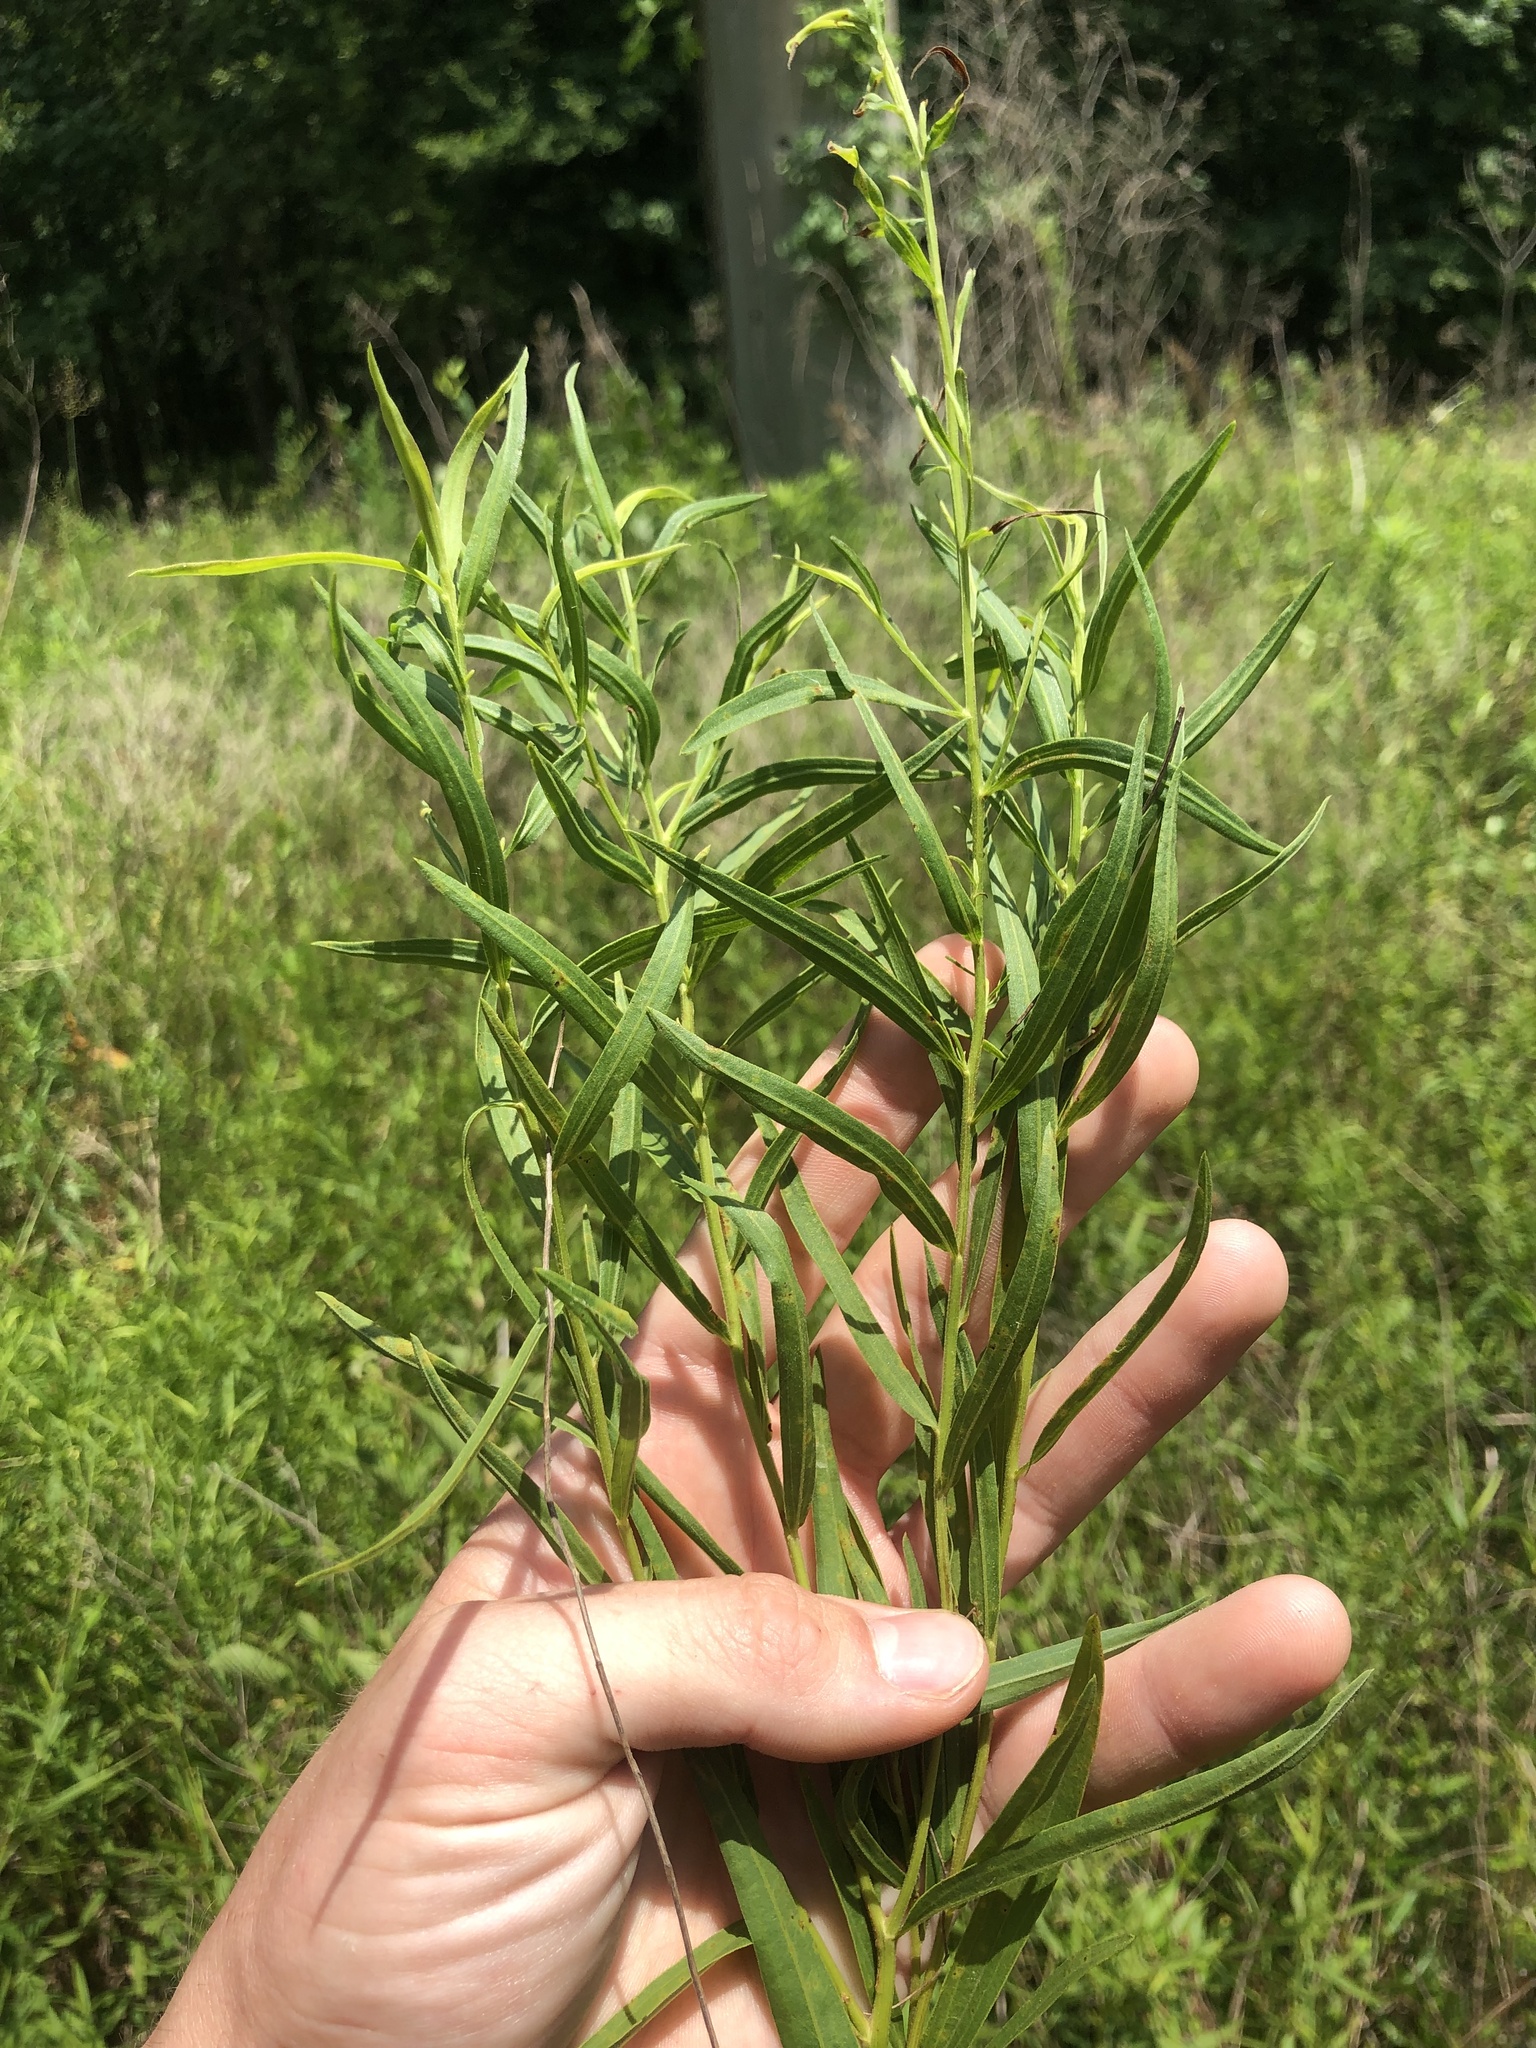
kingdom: Plantae
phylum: Tracheophyta
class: Magnoliopsida
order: Asterales
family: Asteraceae
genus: Euthamia
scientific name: Euthamia scabra
